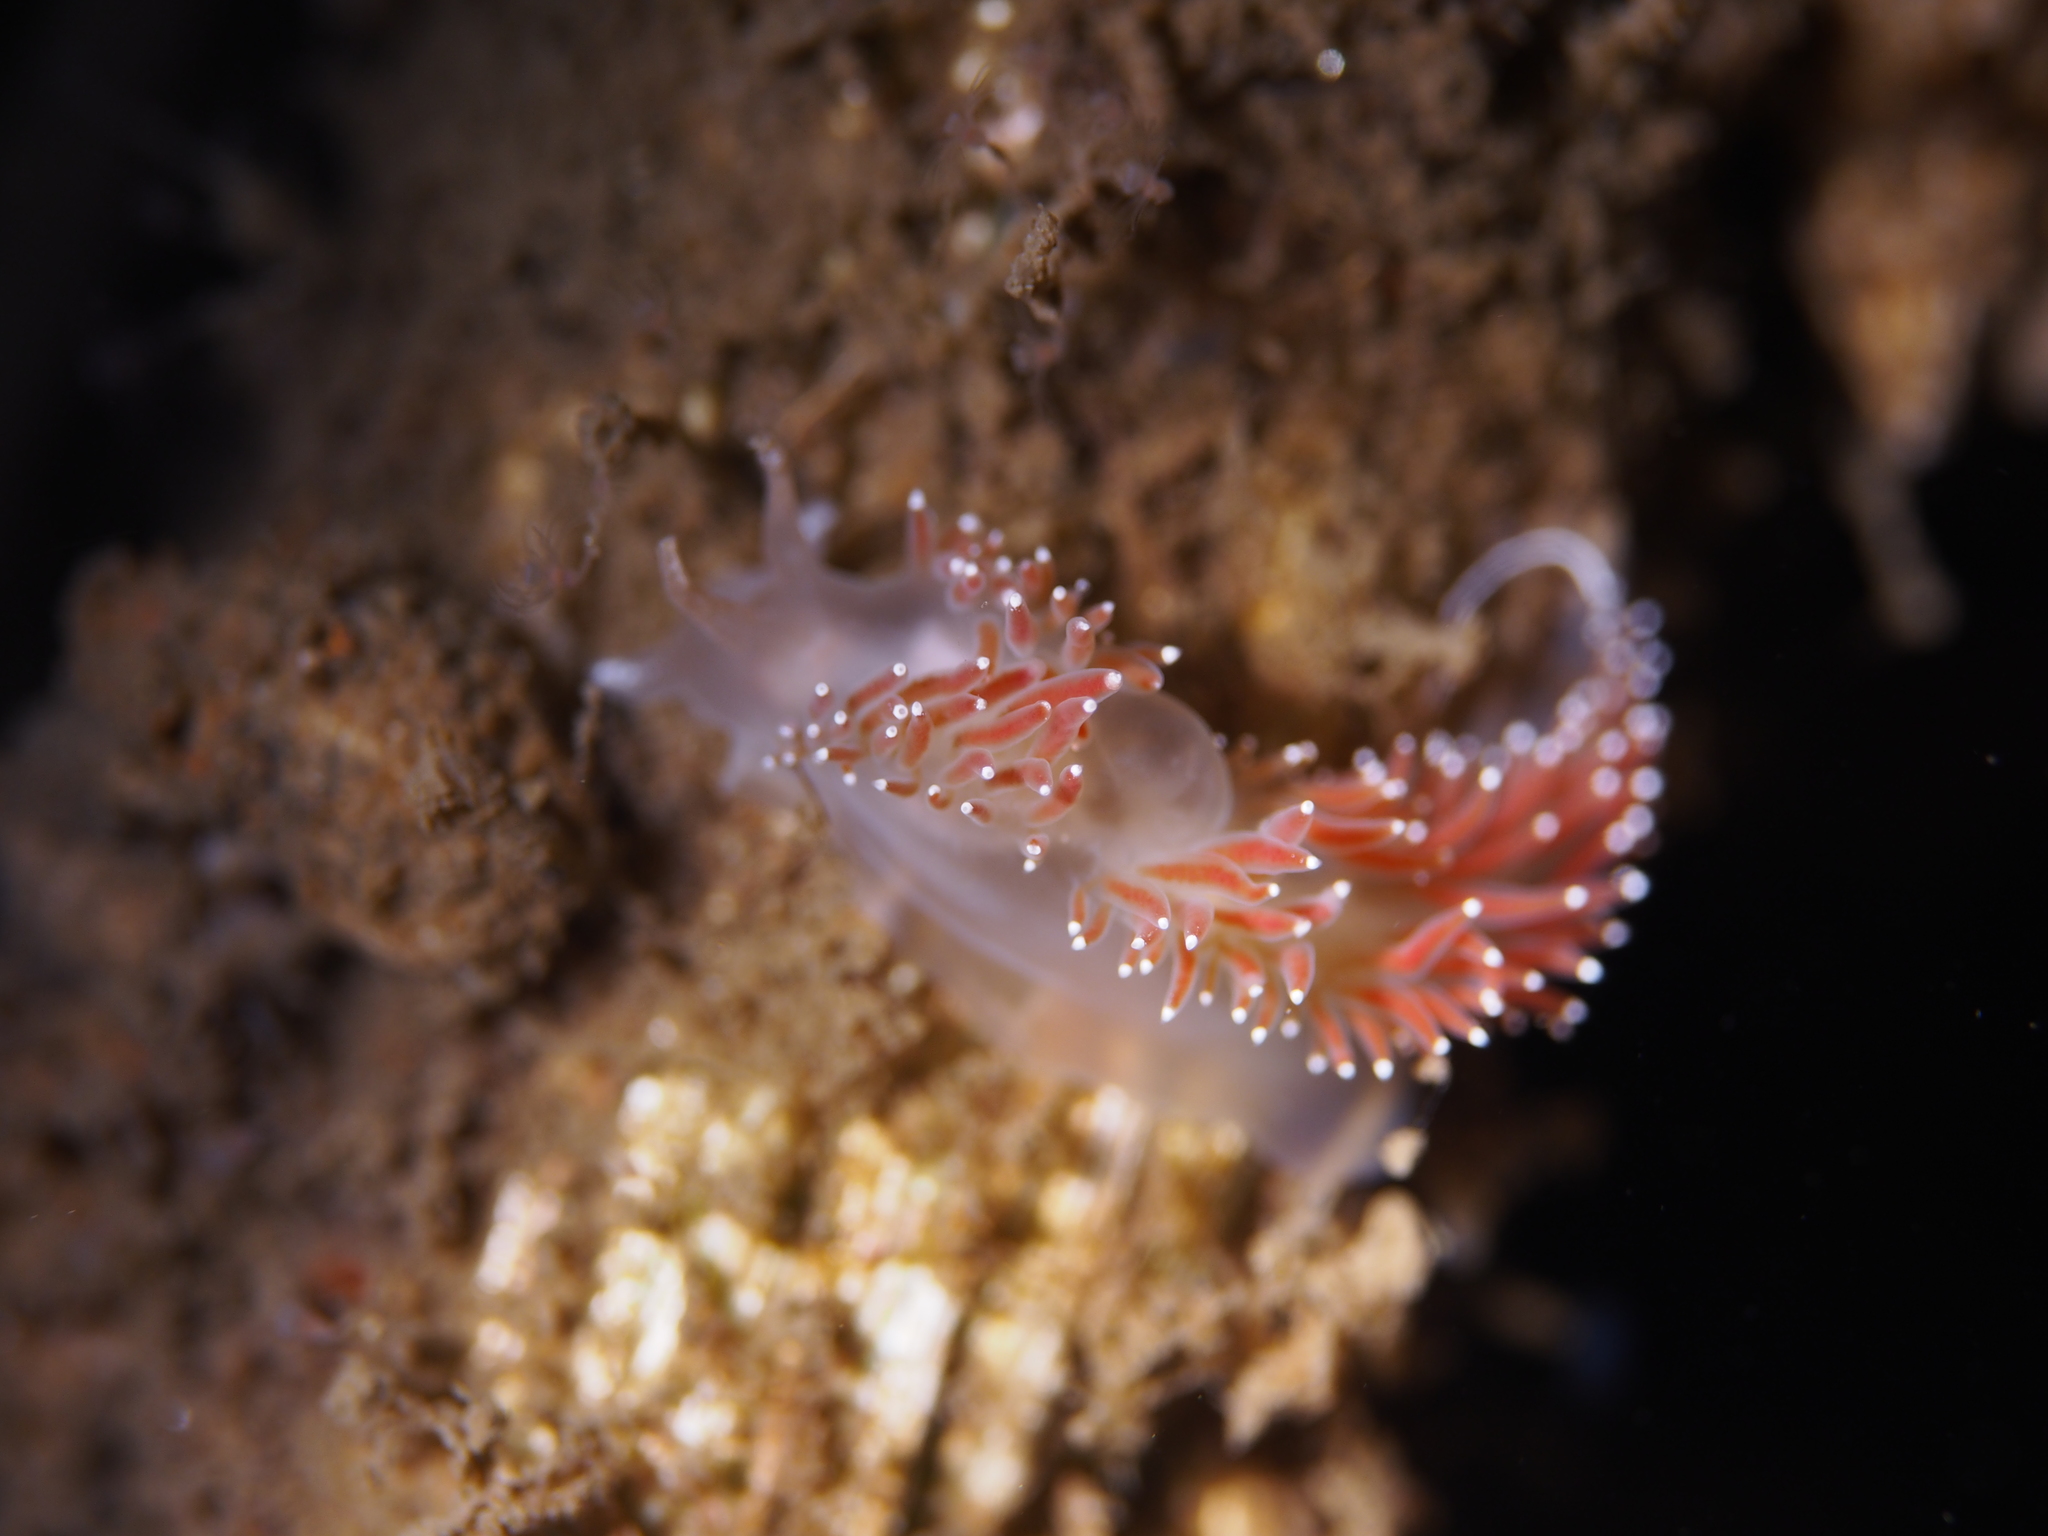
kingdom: Animalia
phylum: Mollusca
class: Gastropoda
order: Nudibranchia
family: Coryphellidae
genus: Coryphella
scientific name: Coryphella verrucosa
